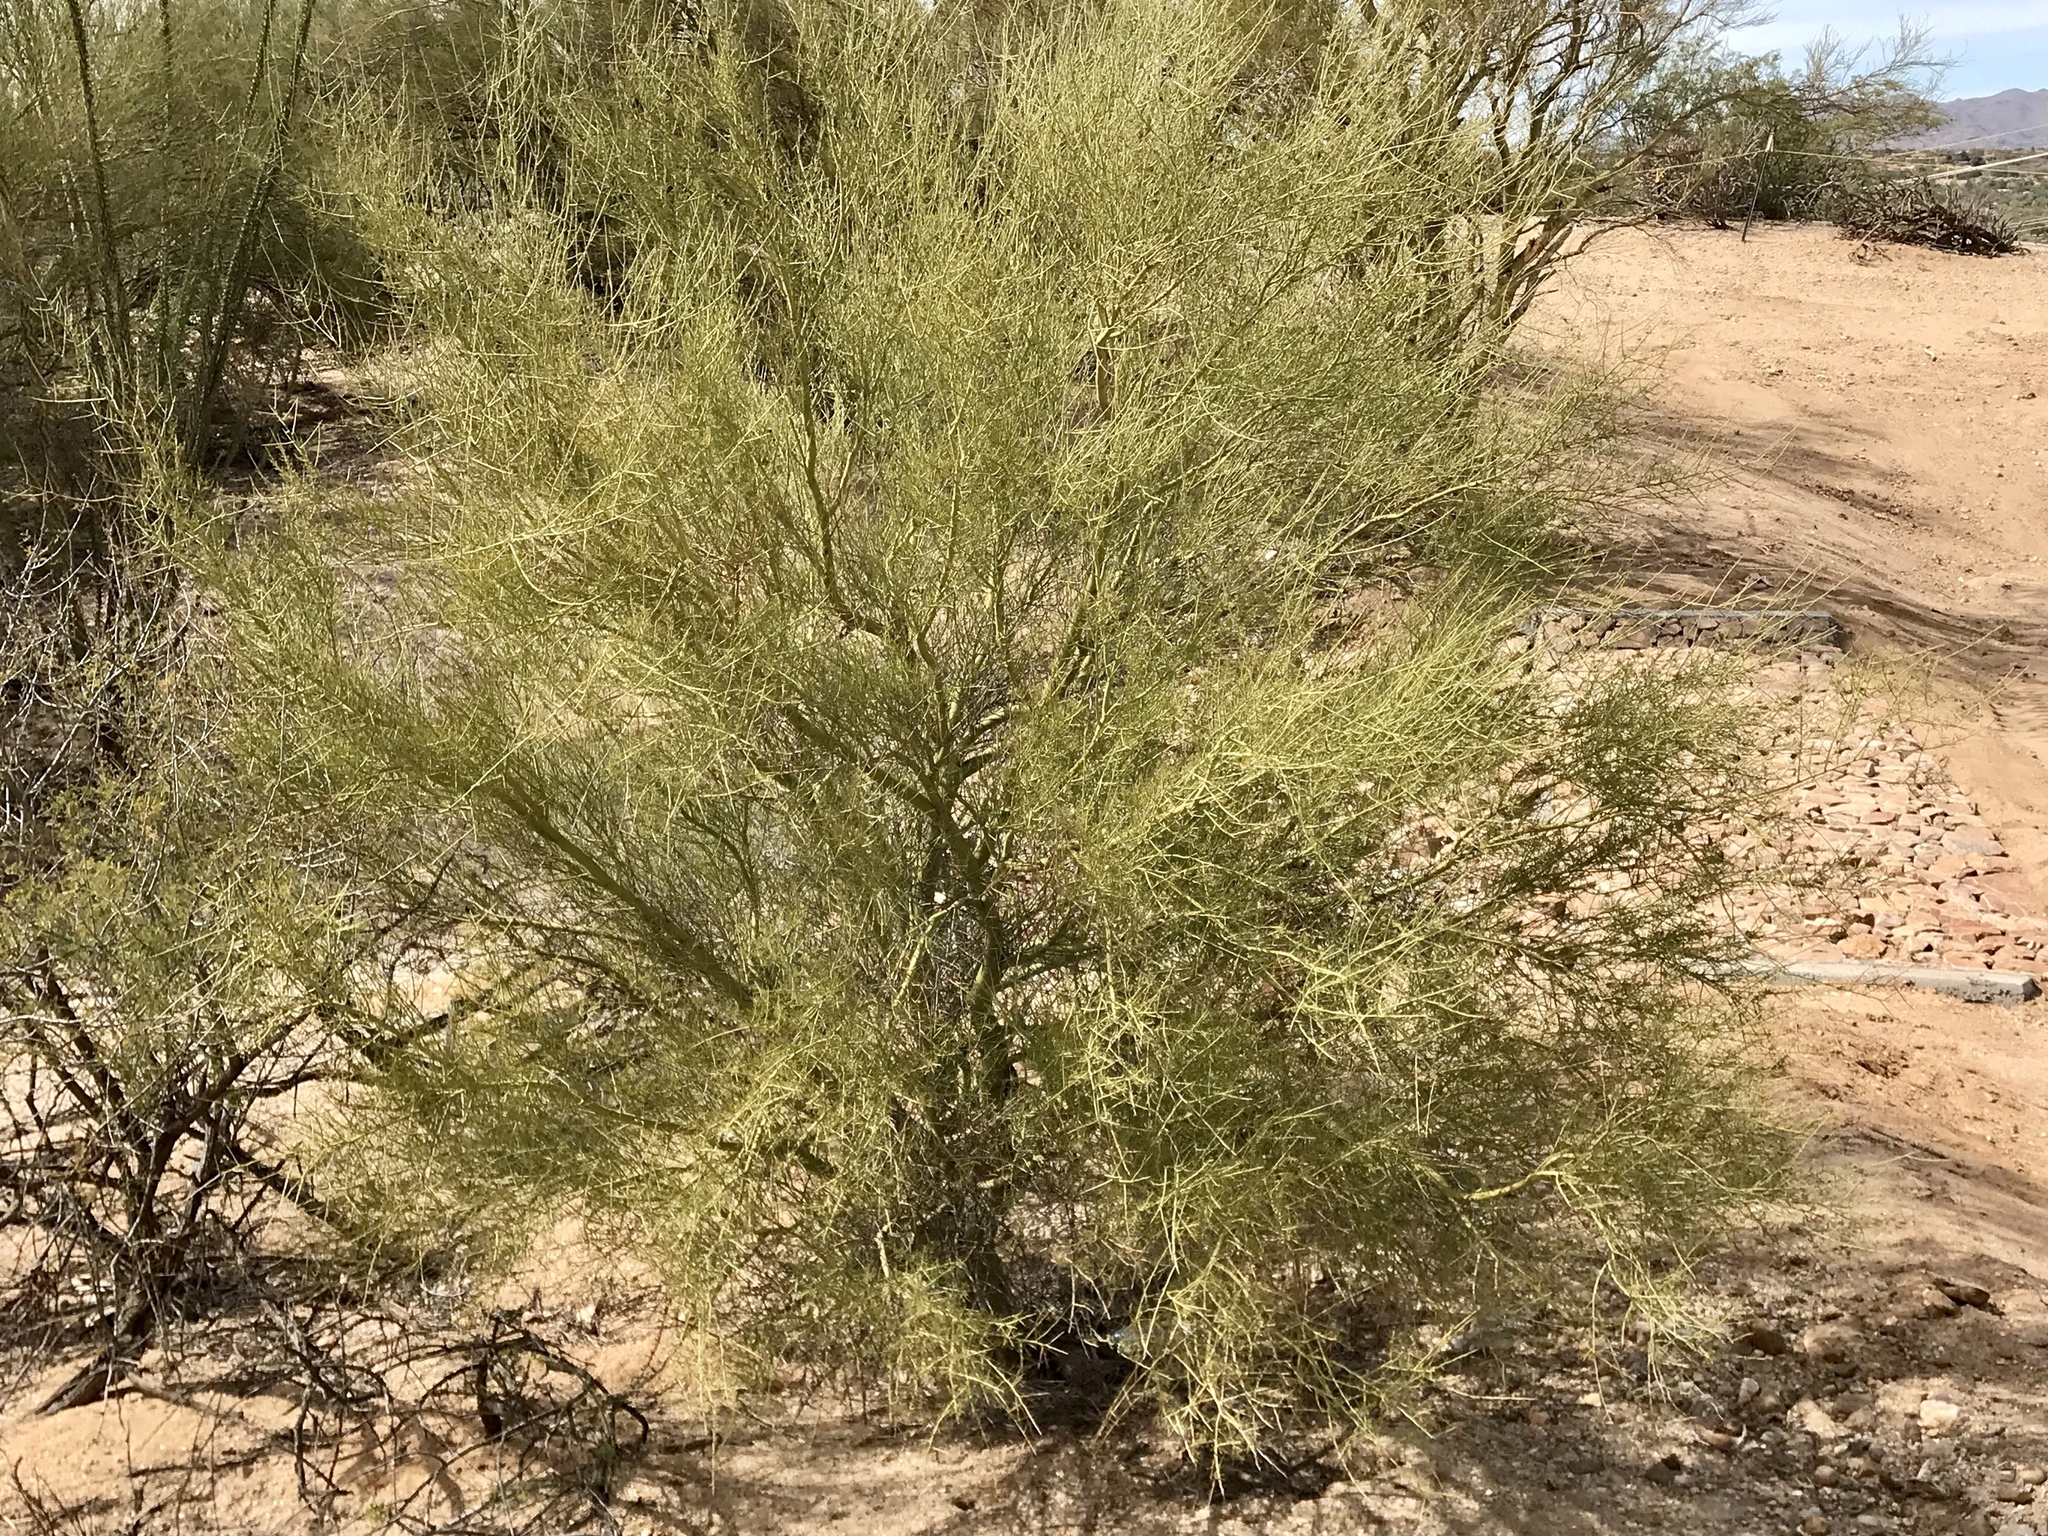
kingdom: Plantae
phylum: Tracheophyta
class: Magnoliopsida
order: Fabales
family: Fabaceae
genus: Parkinsonia
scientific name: Parkinsonia microphylla
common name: Yellow paloverde
